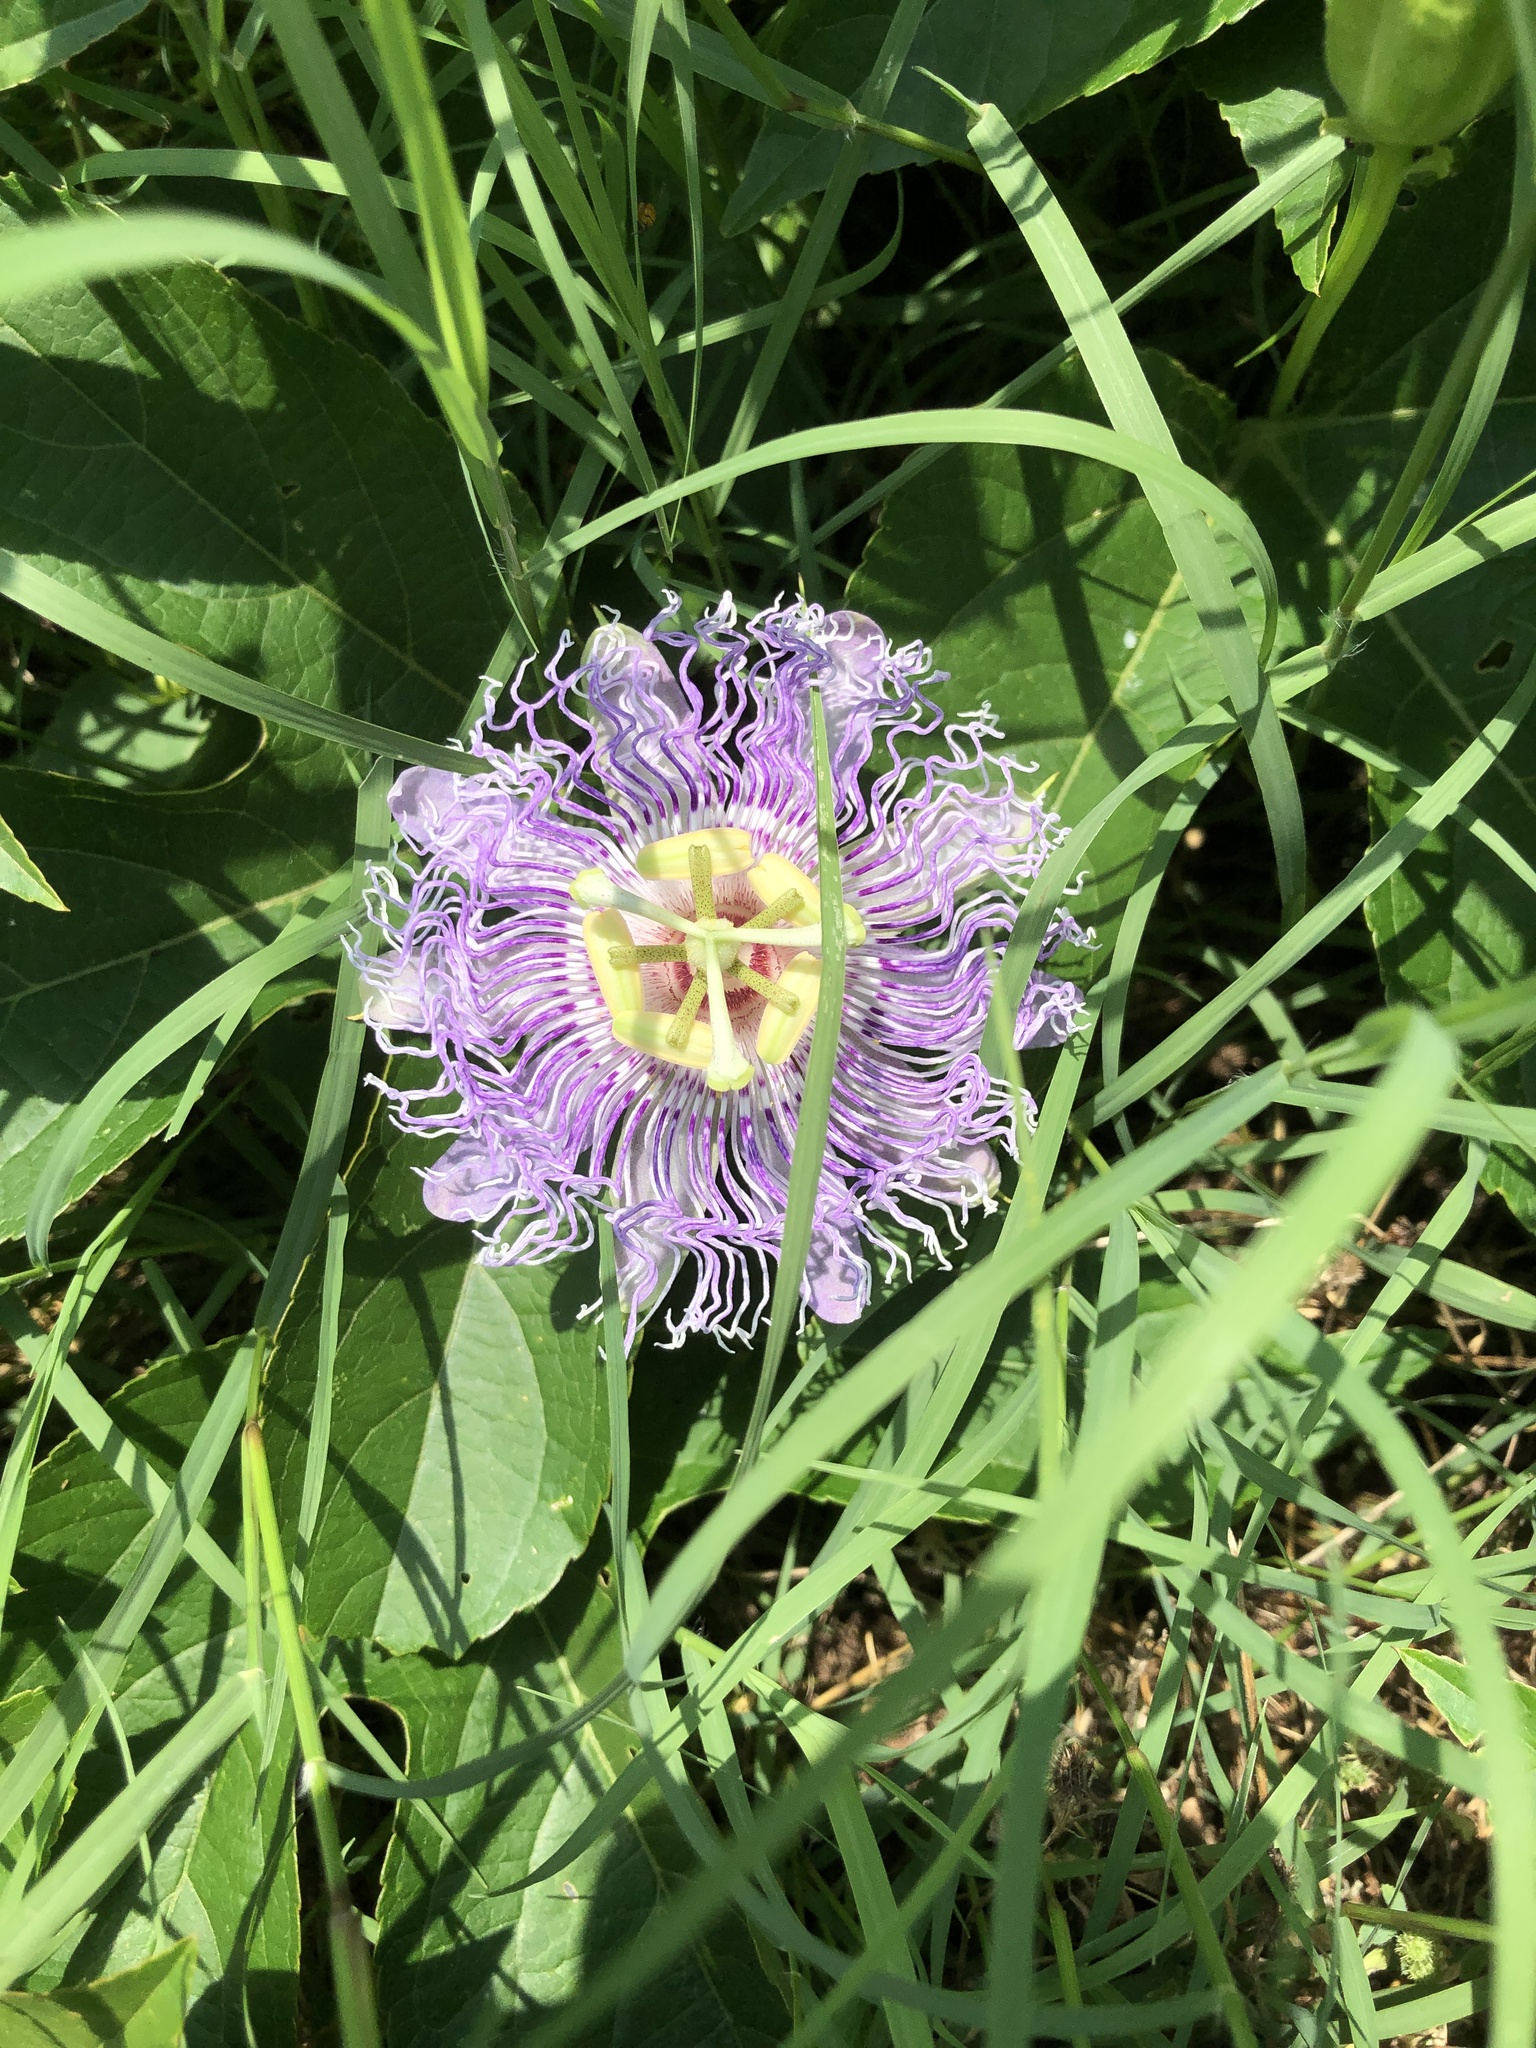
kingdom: Plantae
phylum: Tracheophyta
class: Magnoliopsida
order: Malpighiales
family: Passifloraceae
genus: Passiflora
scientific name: Passiflora incarnata
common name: Apricot-vine
